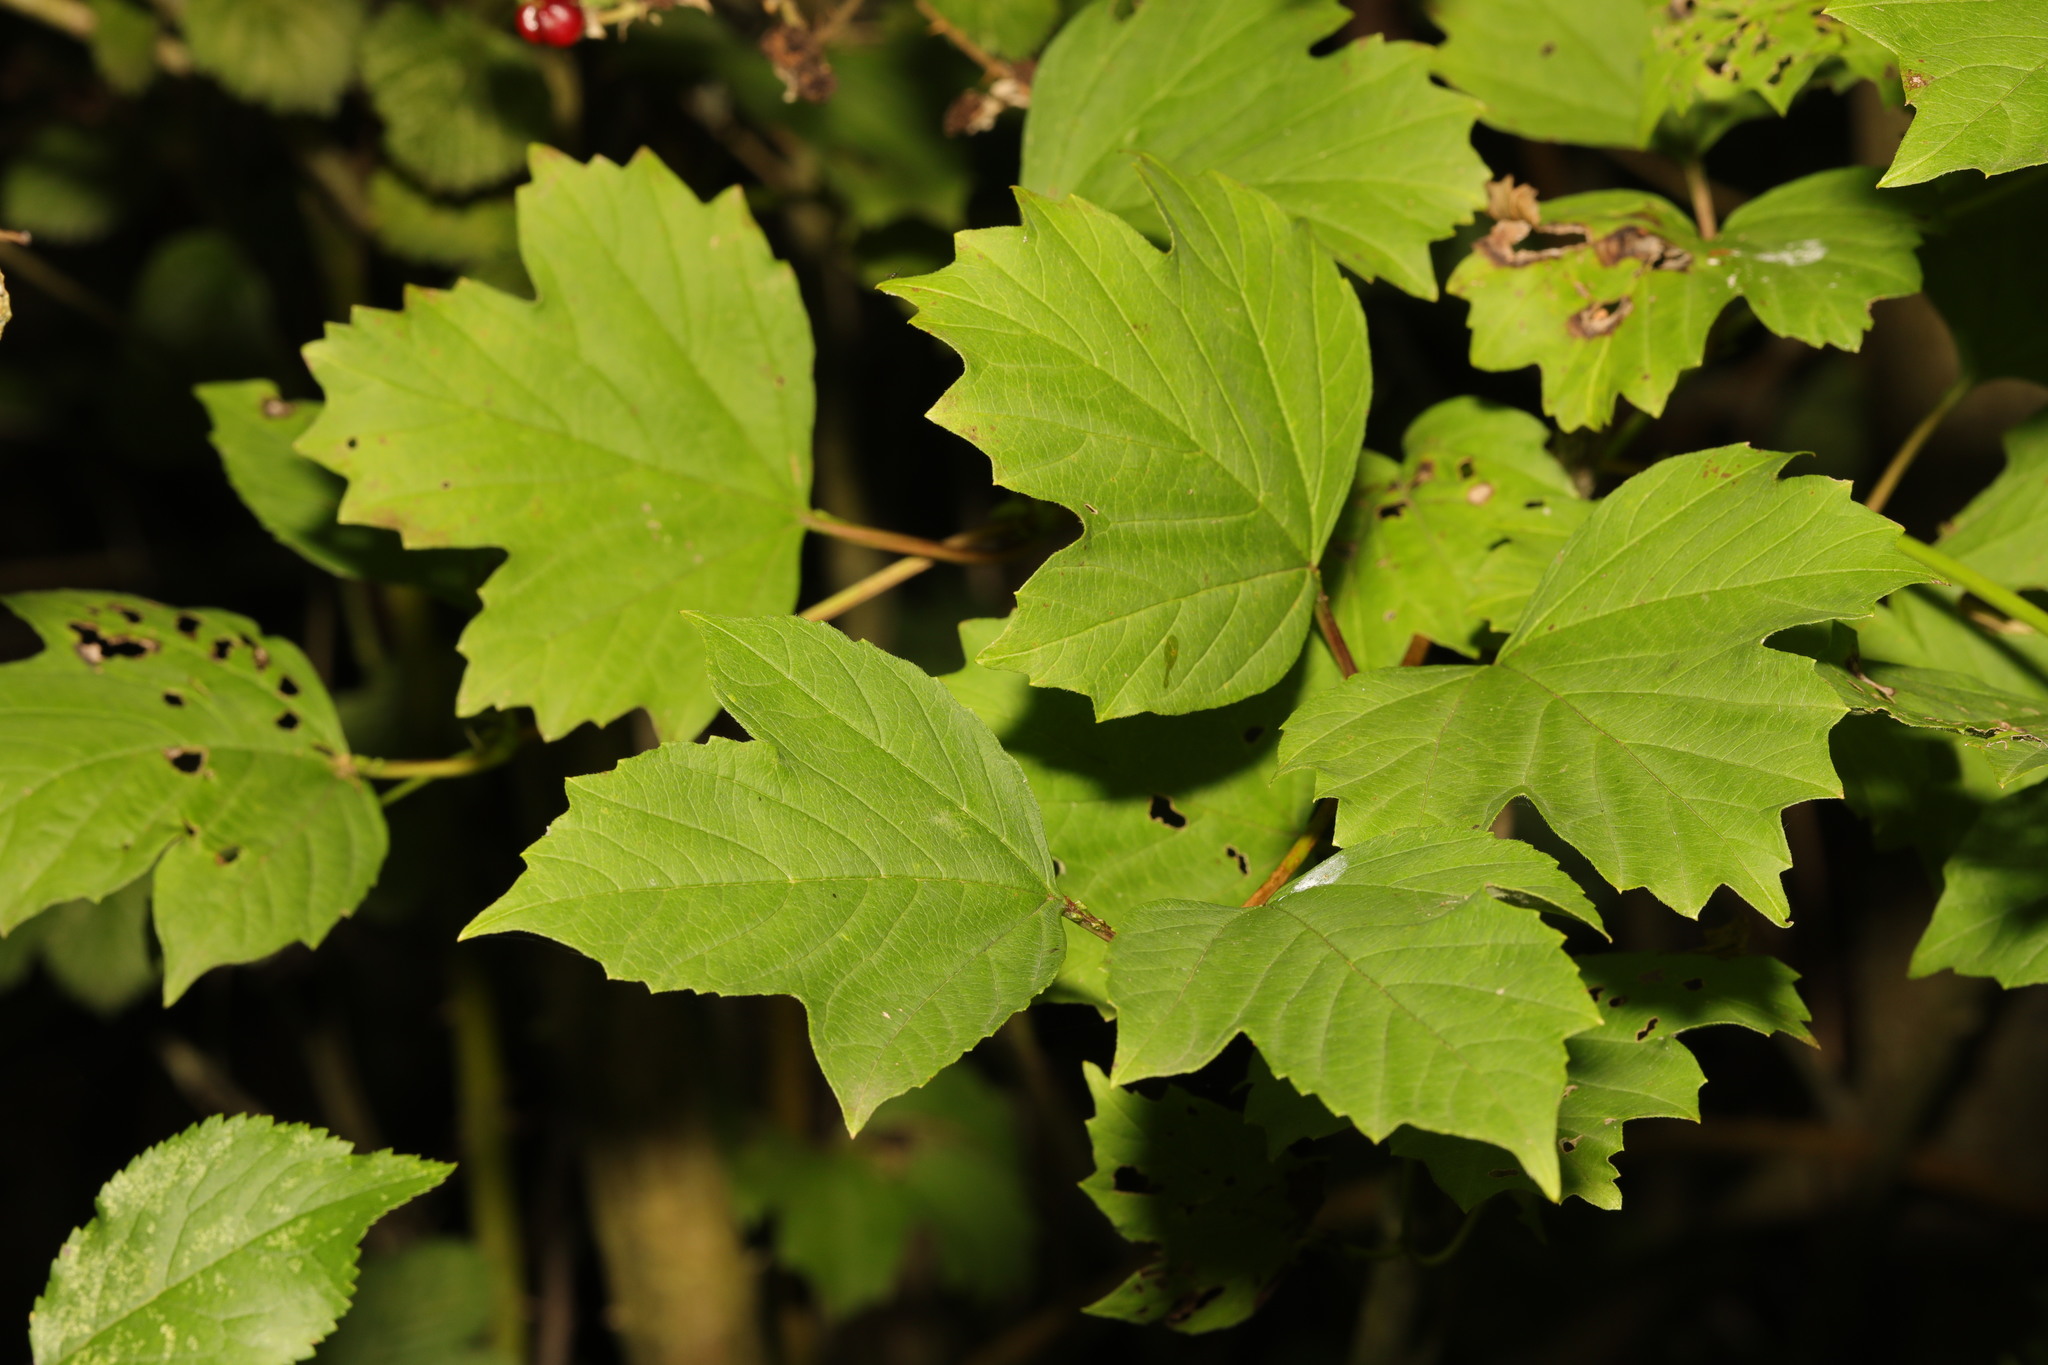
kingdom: Plantae
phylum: Tracheophyta
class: Magnoliopsida
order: Dipsacales
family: Viburnaceae
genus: Viburnum
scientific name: Viburnum opulus
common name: Guelder-rose
